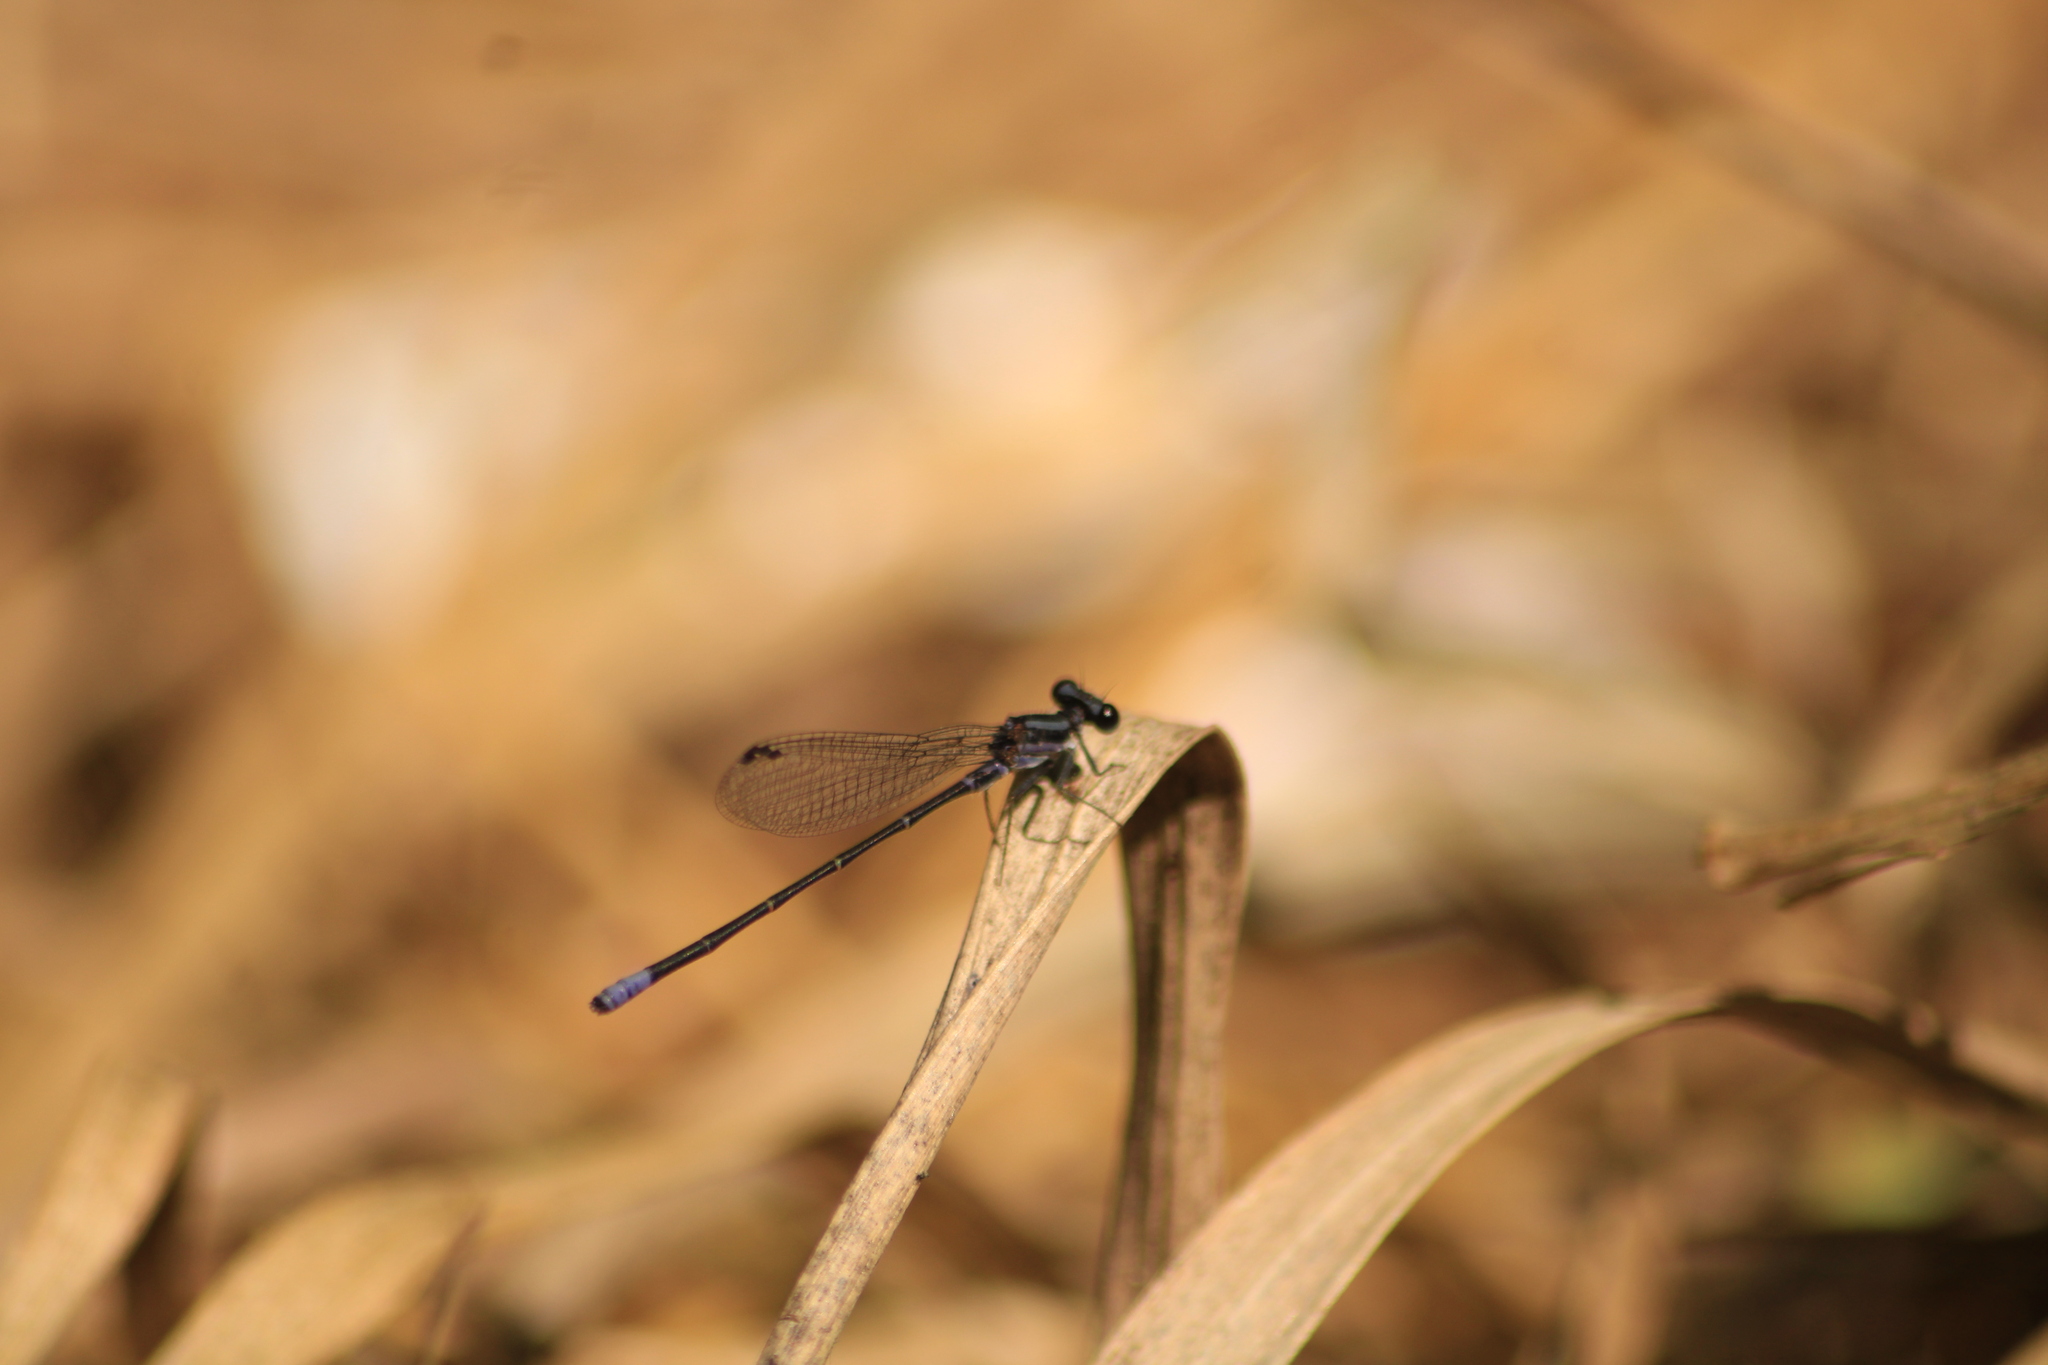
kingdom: Animalia
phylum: Arthropoda
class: Insecta
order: Odonata
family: Coenagrionidae
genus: Argia
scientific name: Argia pulla
